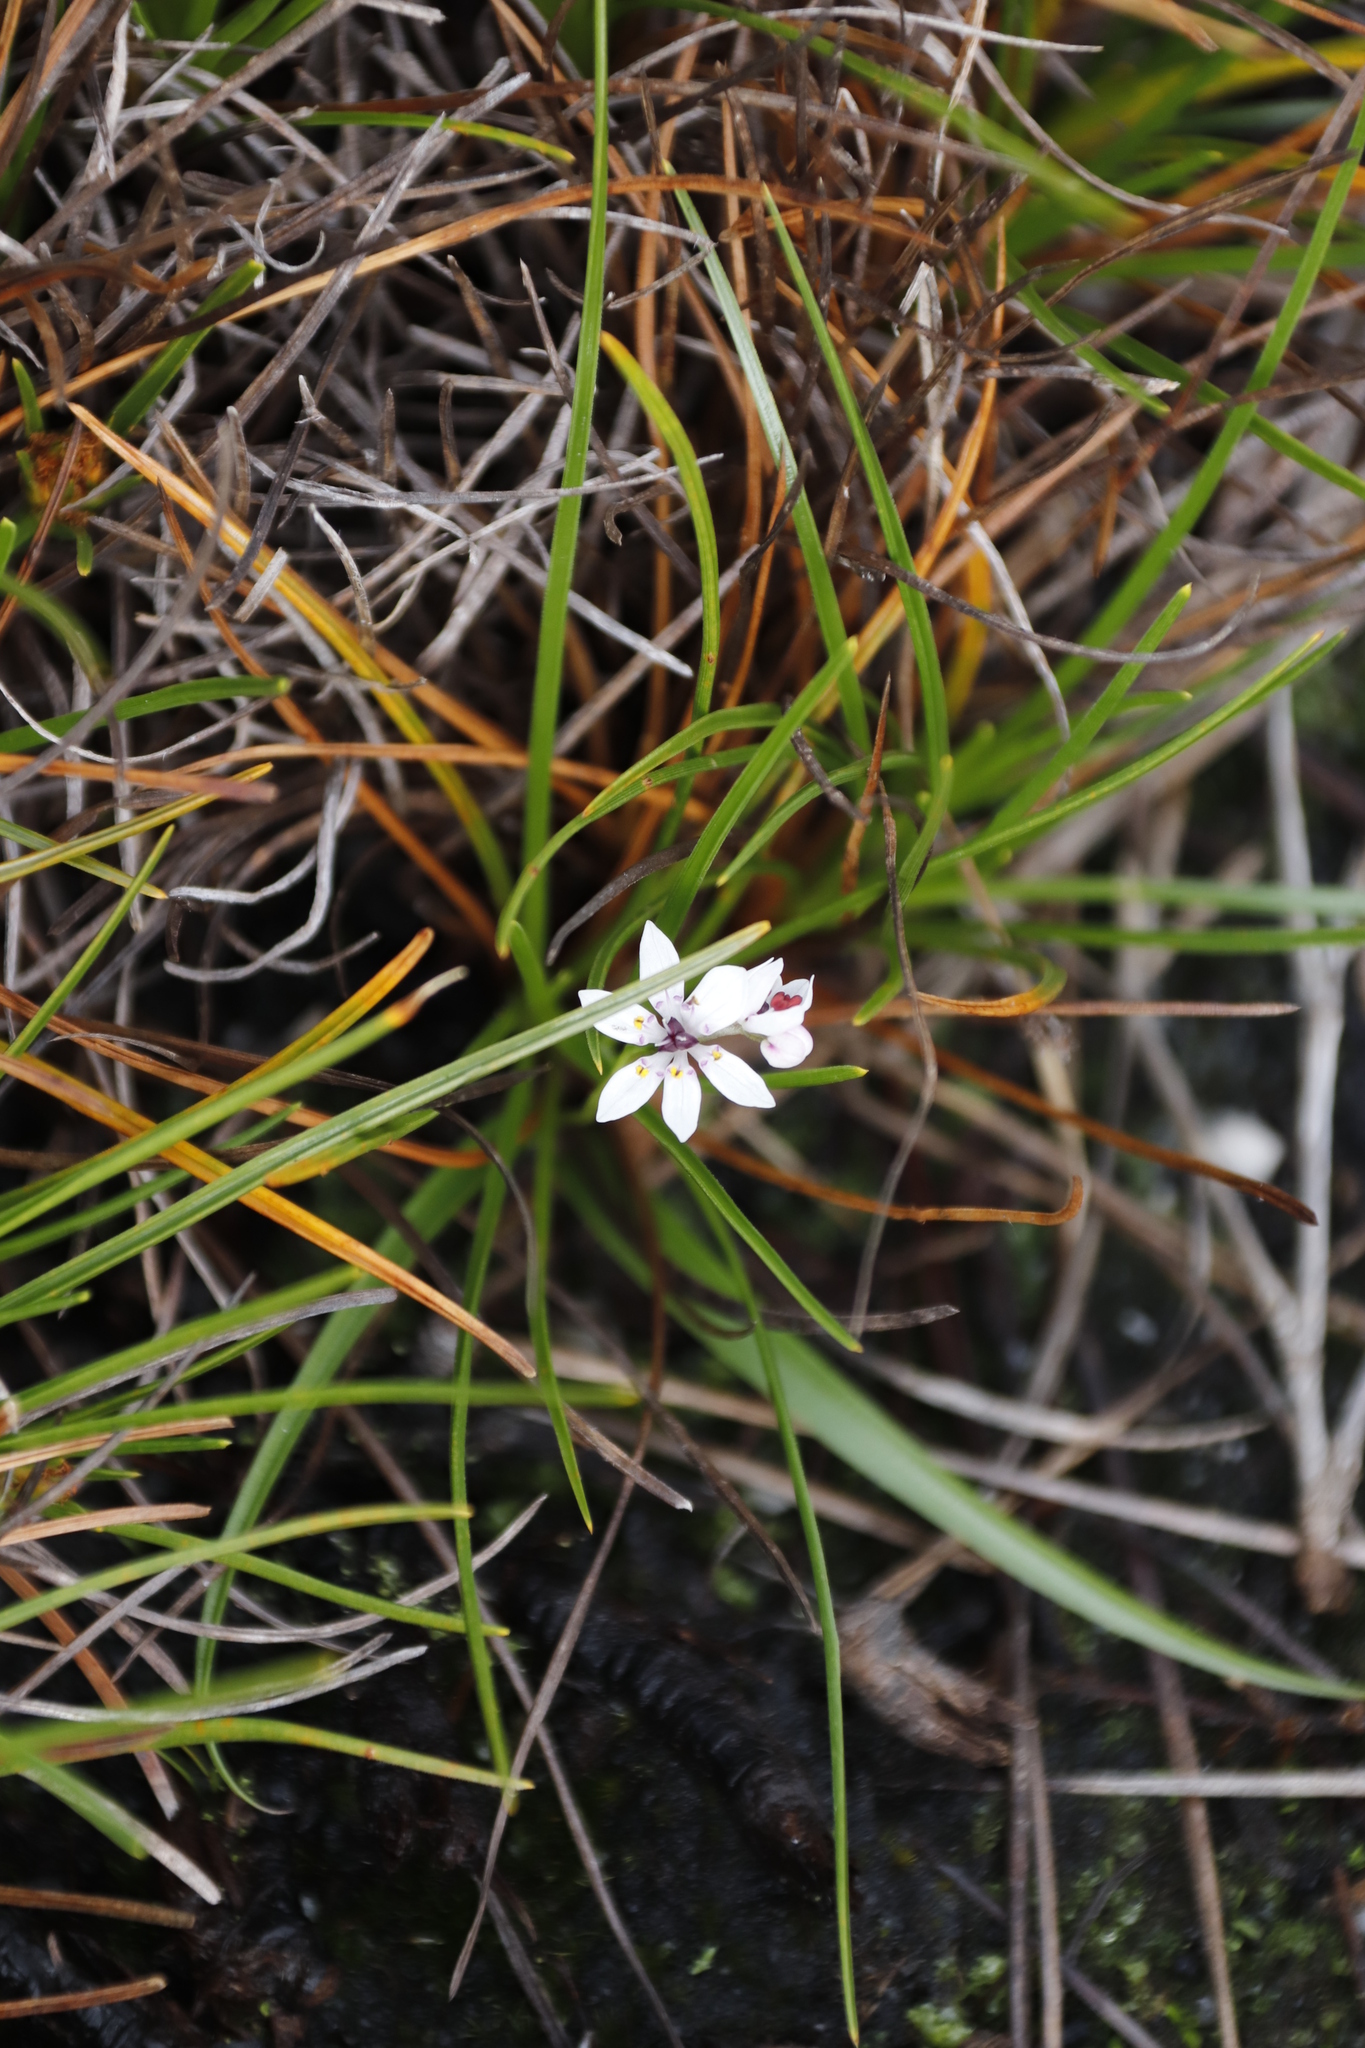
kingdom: Plantae
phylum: Tracheophyta
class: Liliopsida
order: Liliales
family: Colchicaceae
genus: Wurmbea
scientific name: Wurmbea punctata
